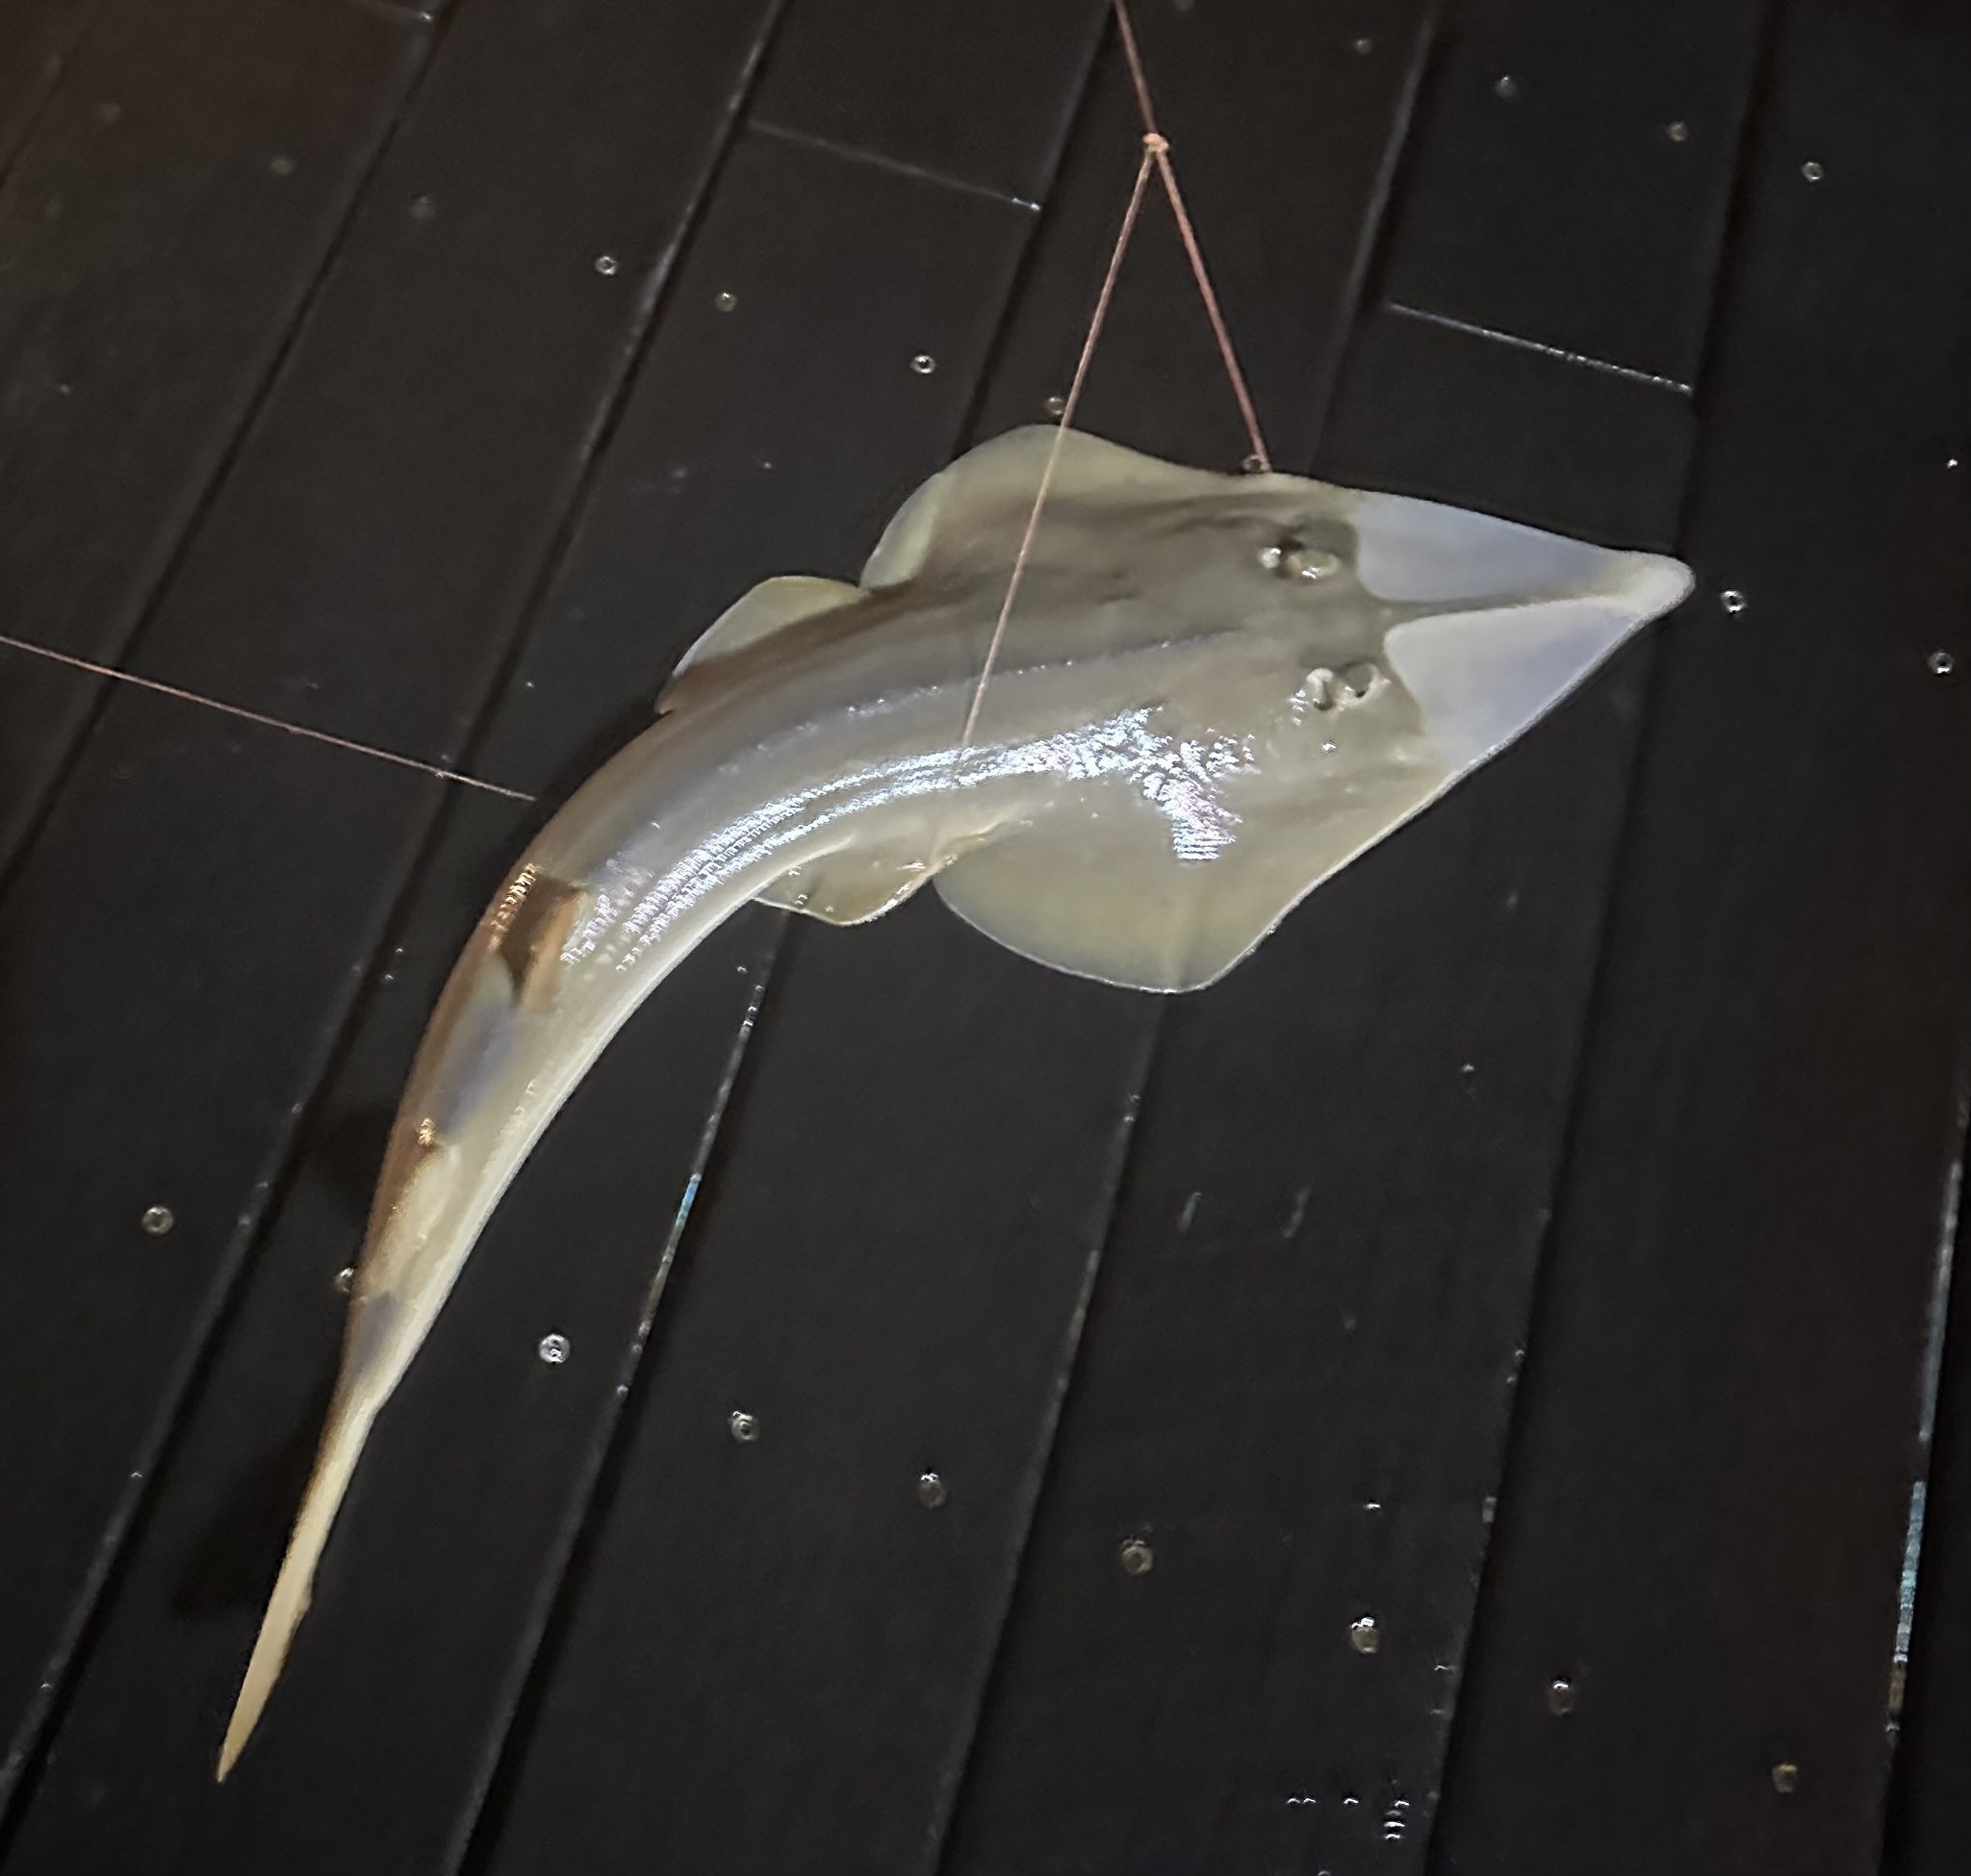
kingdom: Animalia
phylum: Chordata
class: Elasmobranchii
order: Rhinopristiformes
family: Glaucostegidae
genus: Glaucostegus
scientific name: Glaucostegus typus
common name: Giant shovelnose ray
